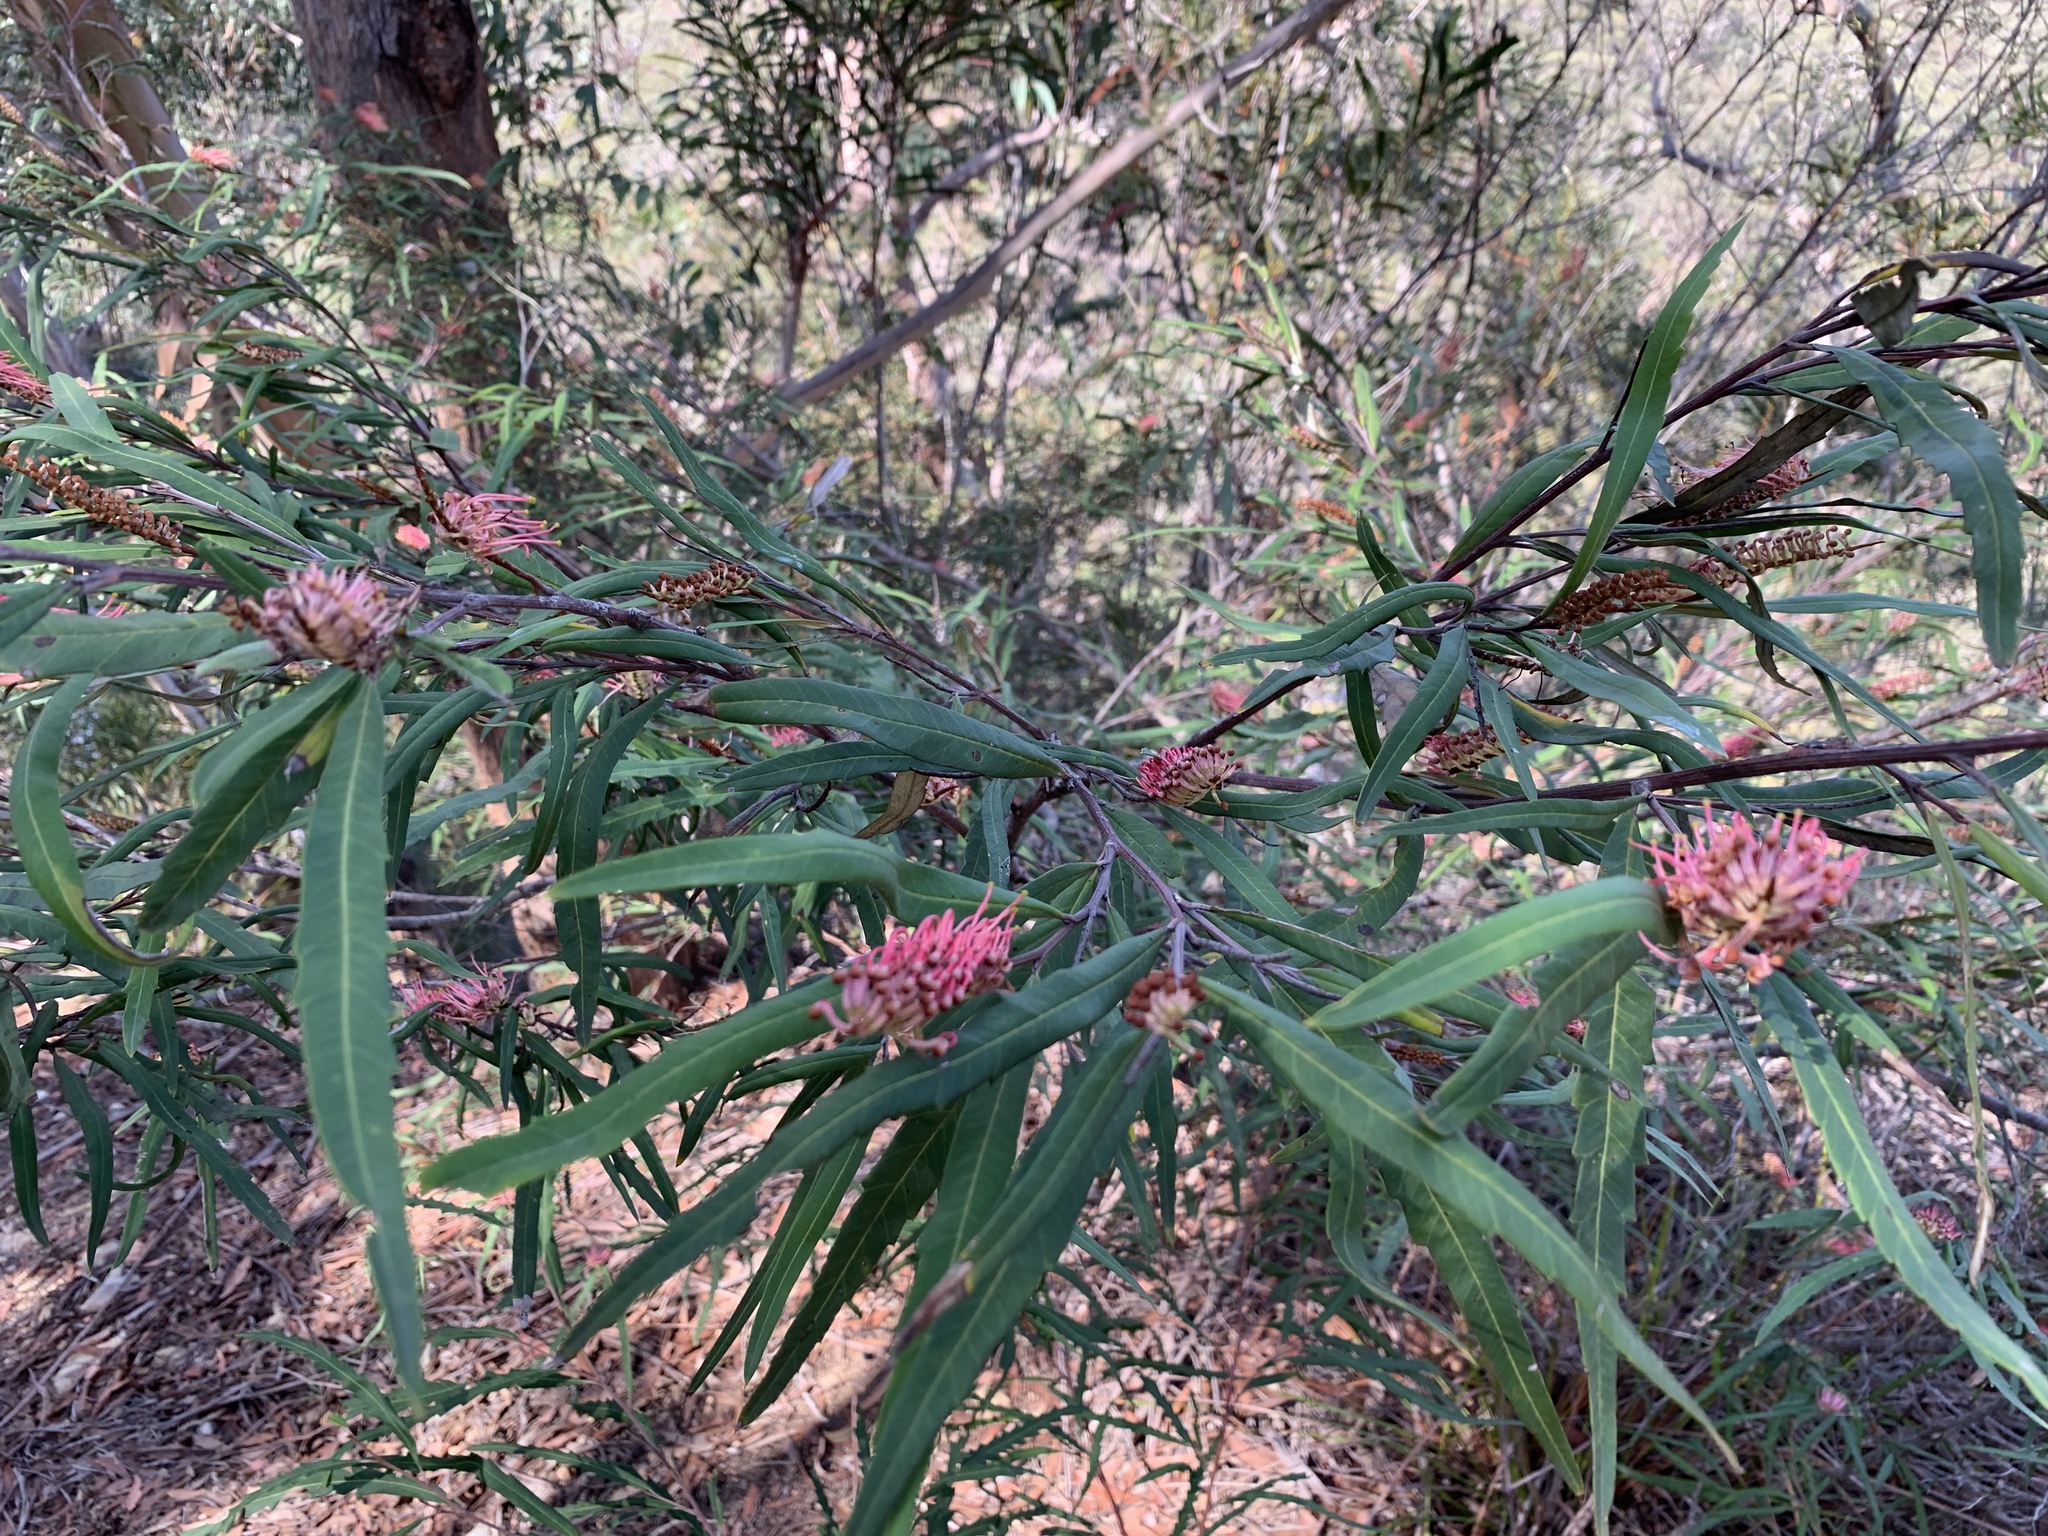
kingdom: Plantae
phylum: Tracheophyta
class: Magnoliopsida
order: Proteales
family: Proteaceae
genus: Grevillea
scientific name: Grevillea longifolia
